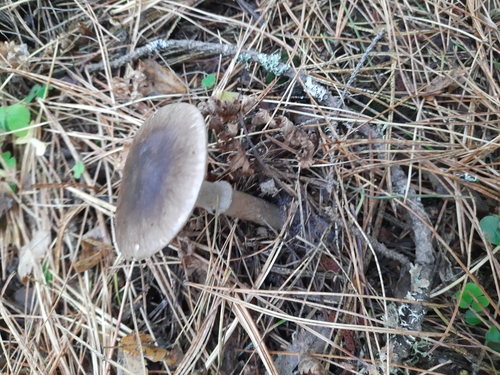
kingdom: Fungi
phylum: Basidiomycota
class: Agaricomycetes
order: Agaricales
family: Amanitaceae
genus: Amanita
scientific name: Amanita porphyria
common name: Grey veiled amanita
